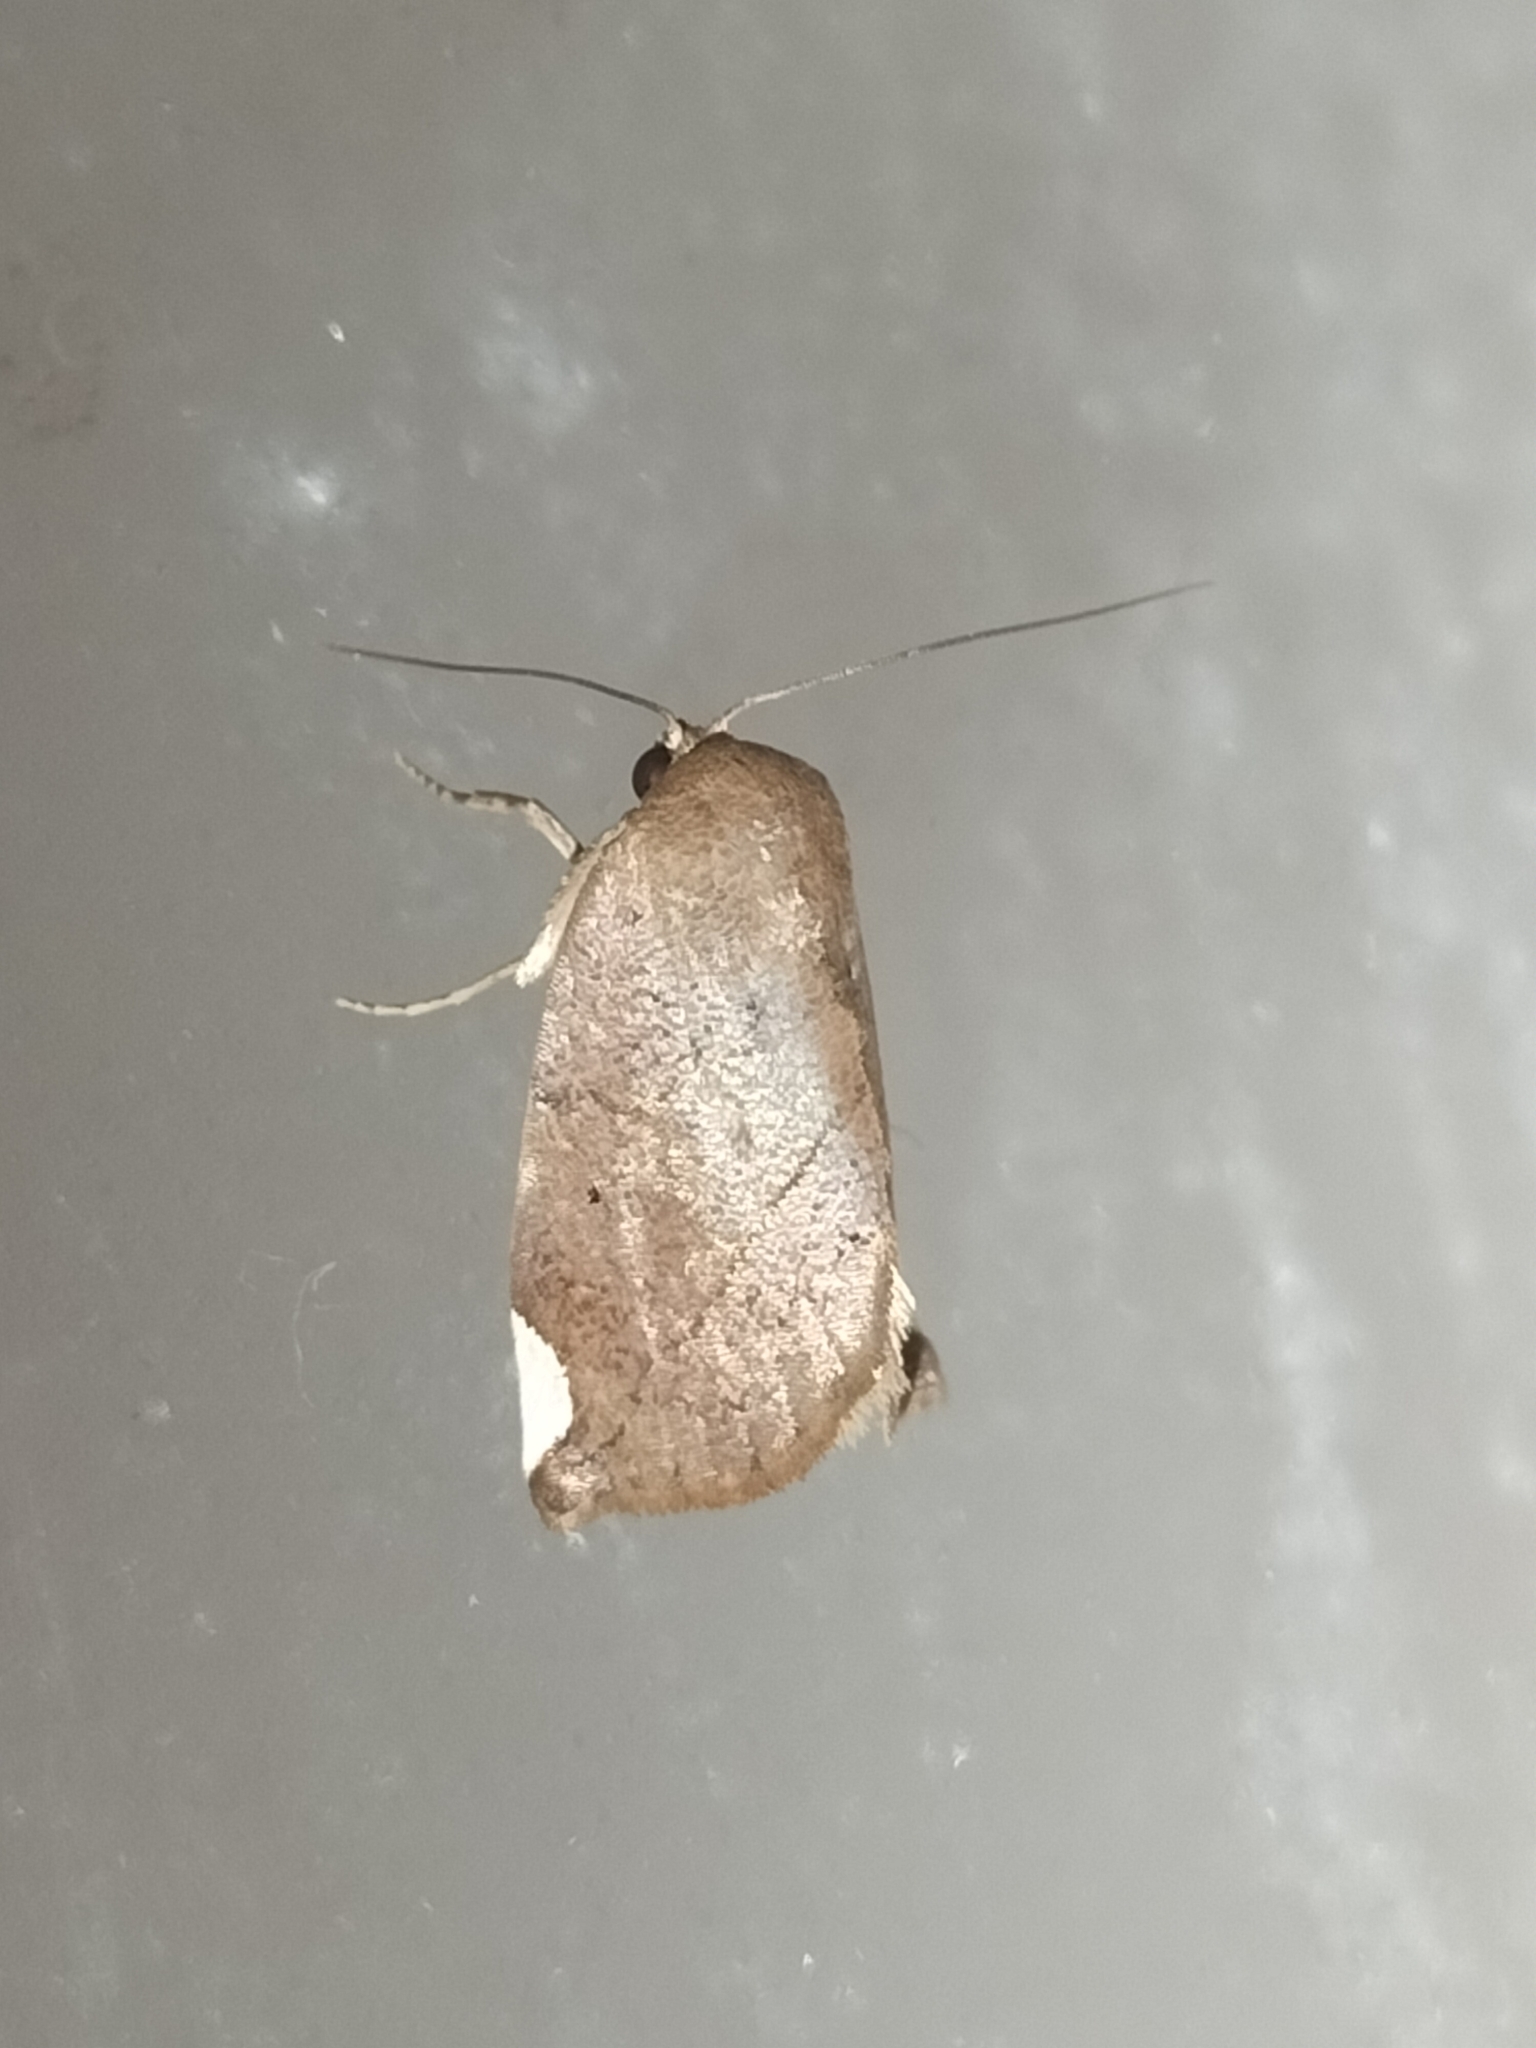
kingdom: Animalia
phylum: Arthropoda
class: Insecta
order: Lepidoptera
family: Nolidae
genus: Negeta
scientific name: Negeta contrariata
